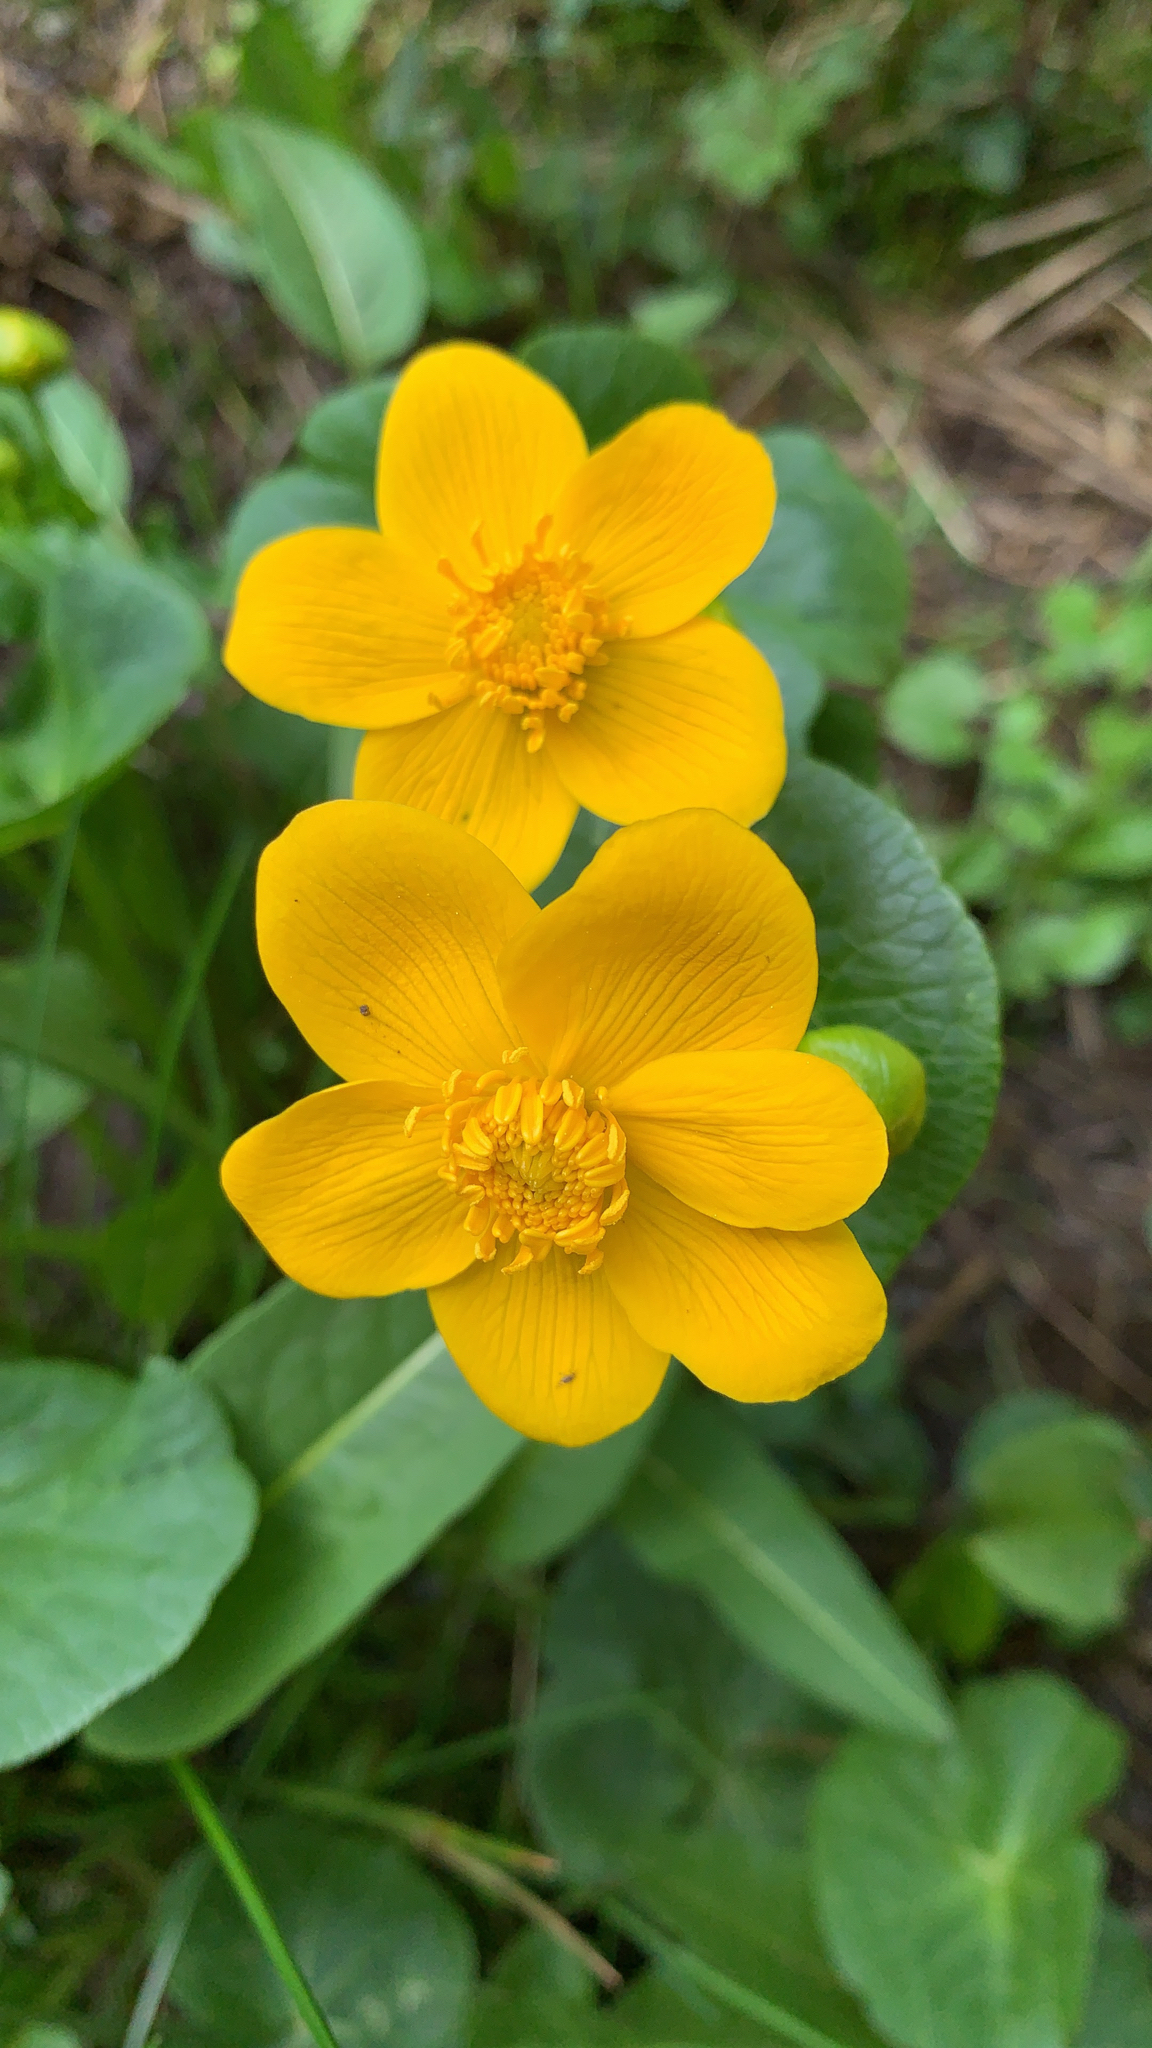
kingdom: Plantae
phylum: Tracheophyta
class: Magnoliopsida
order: Ranunculales
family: Ranunculaceae
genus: Caltha
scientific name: Caltha palustris
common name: Marsh marigold
